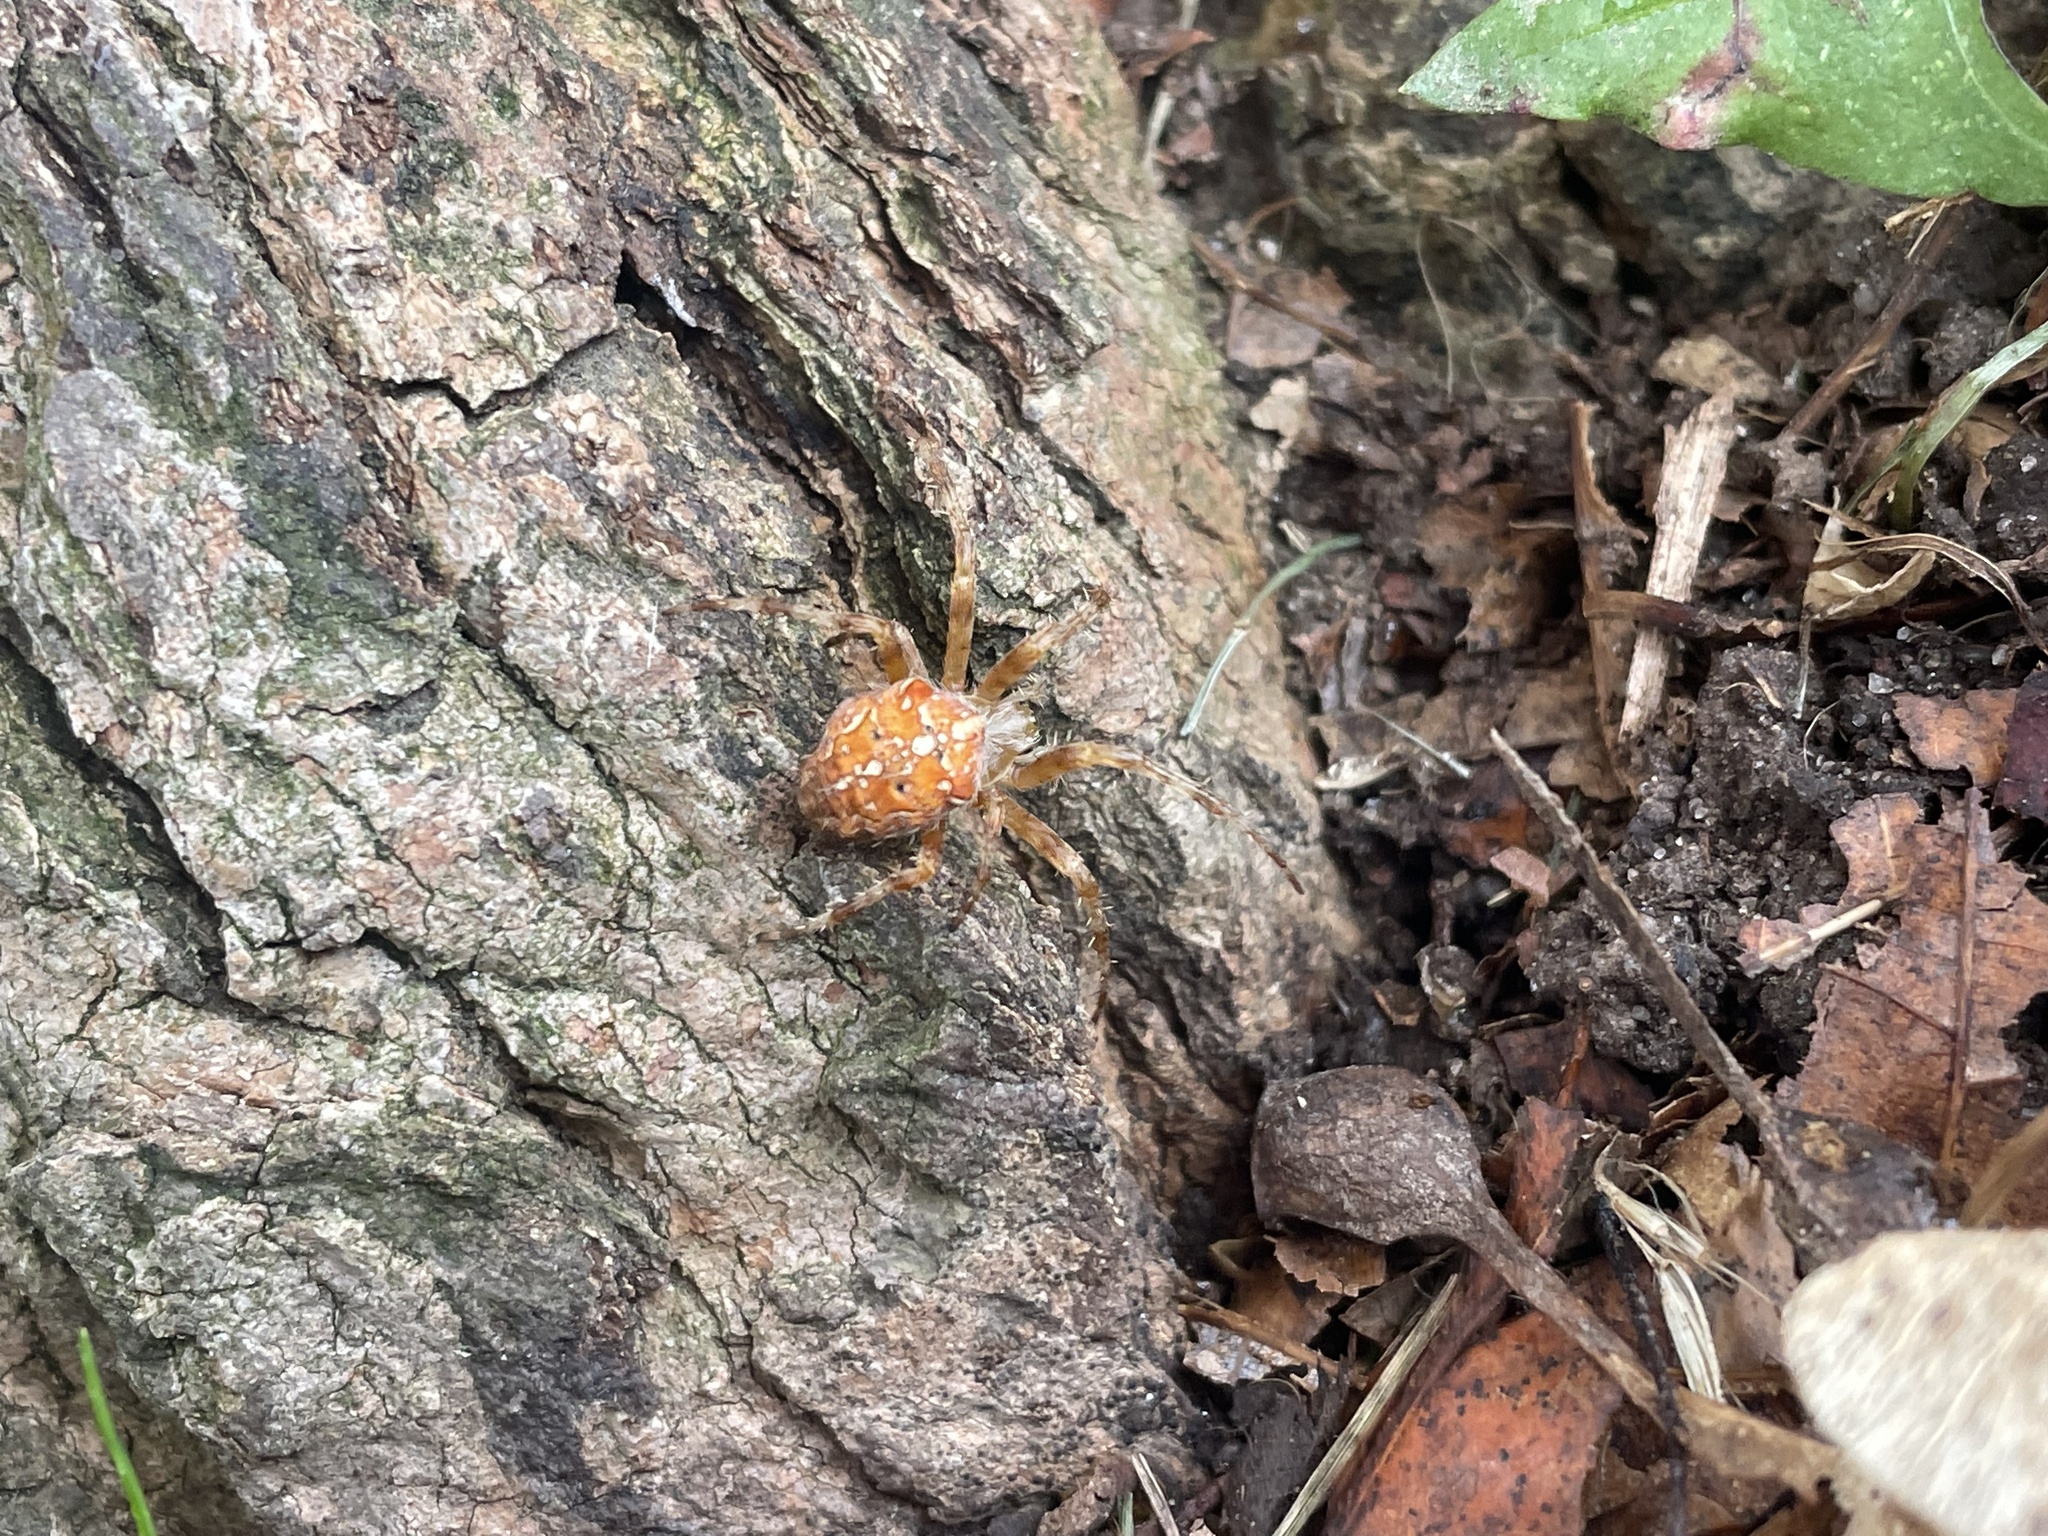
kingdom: Animalia
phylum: Arthropoda
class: Arachnida
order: Araneae
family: Araneidae
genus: Araneus
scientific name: Araneus diadematus
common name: Cross orbweaver
